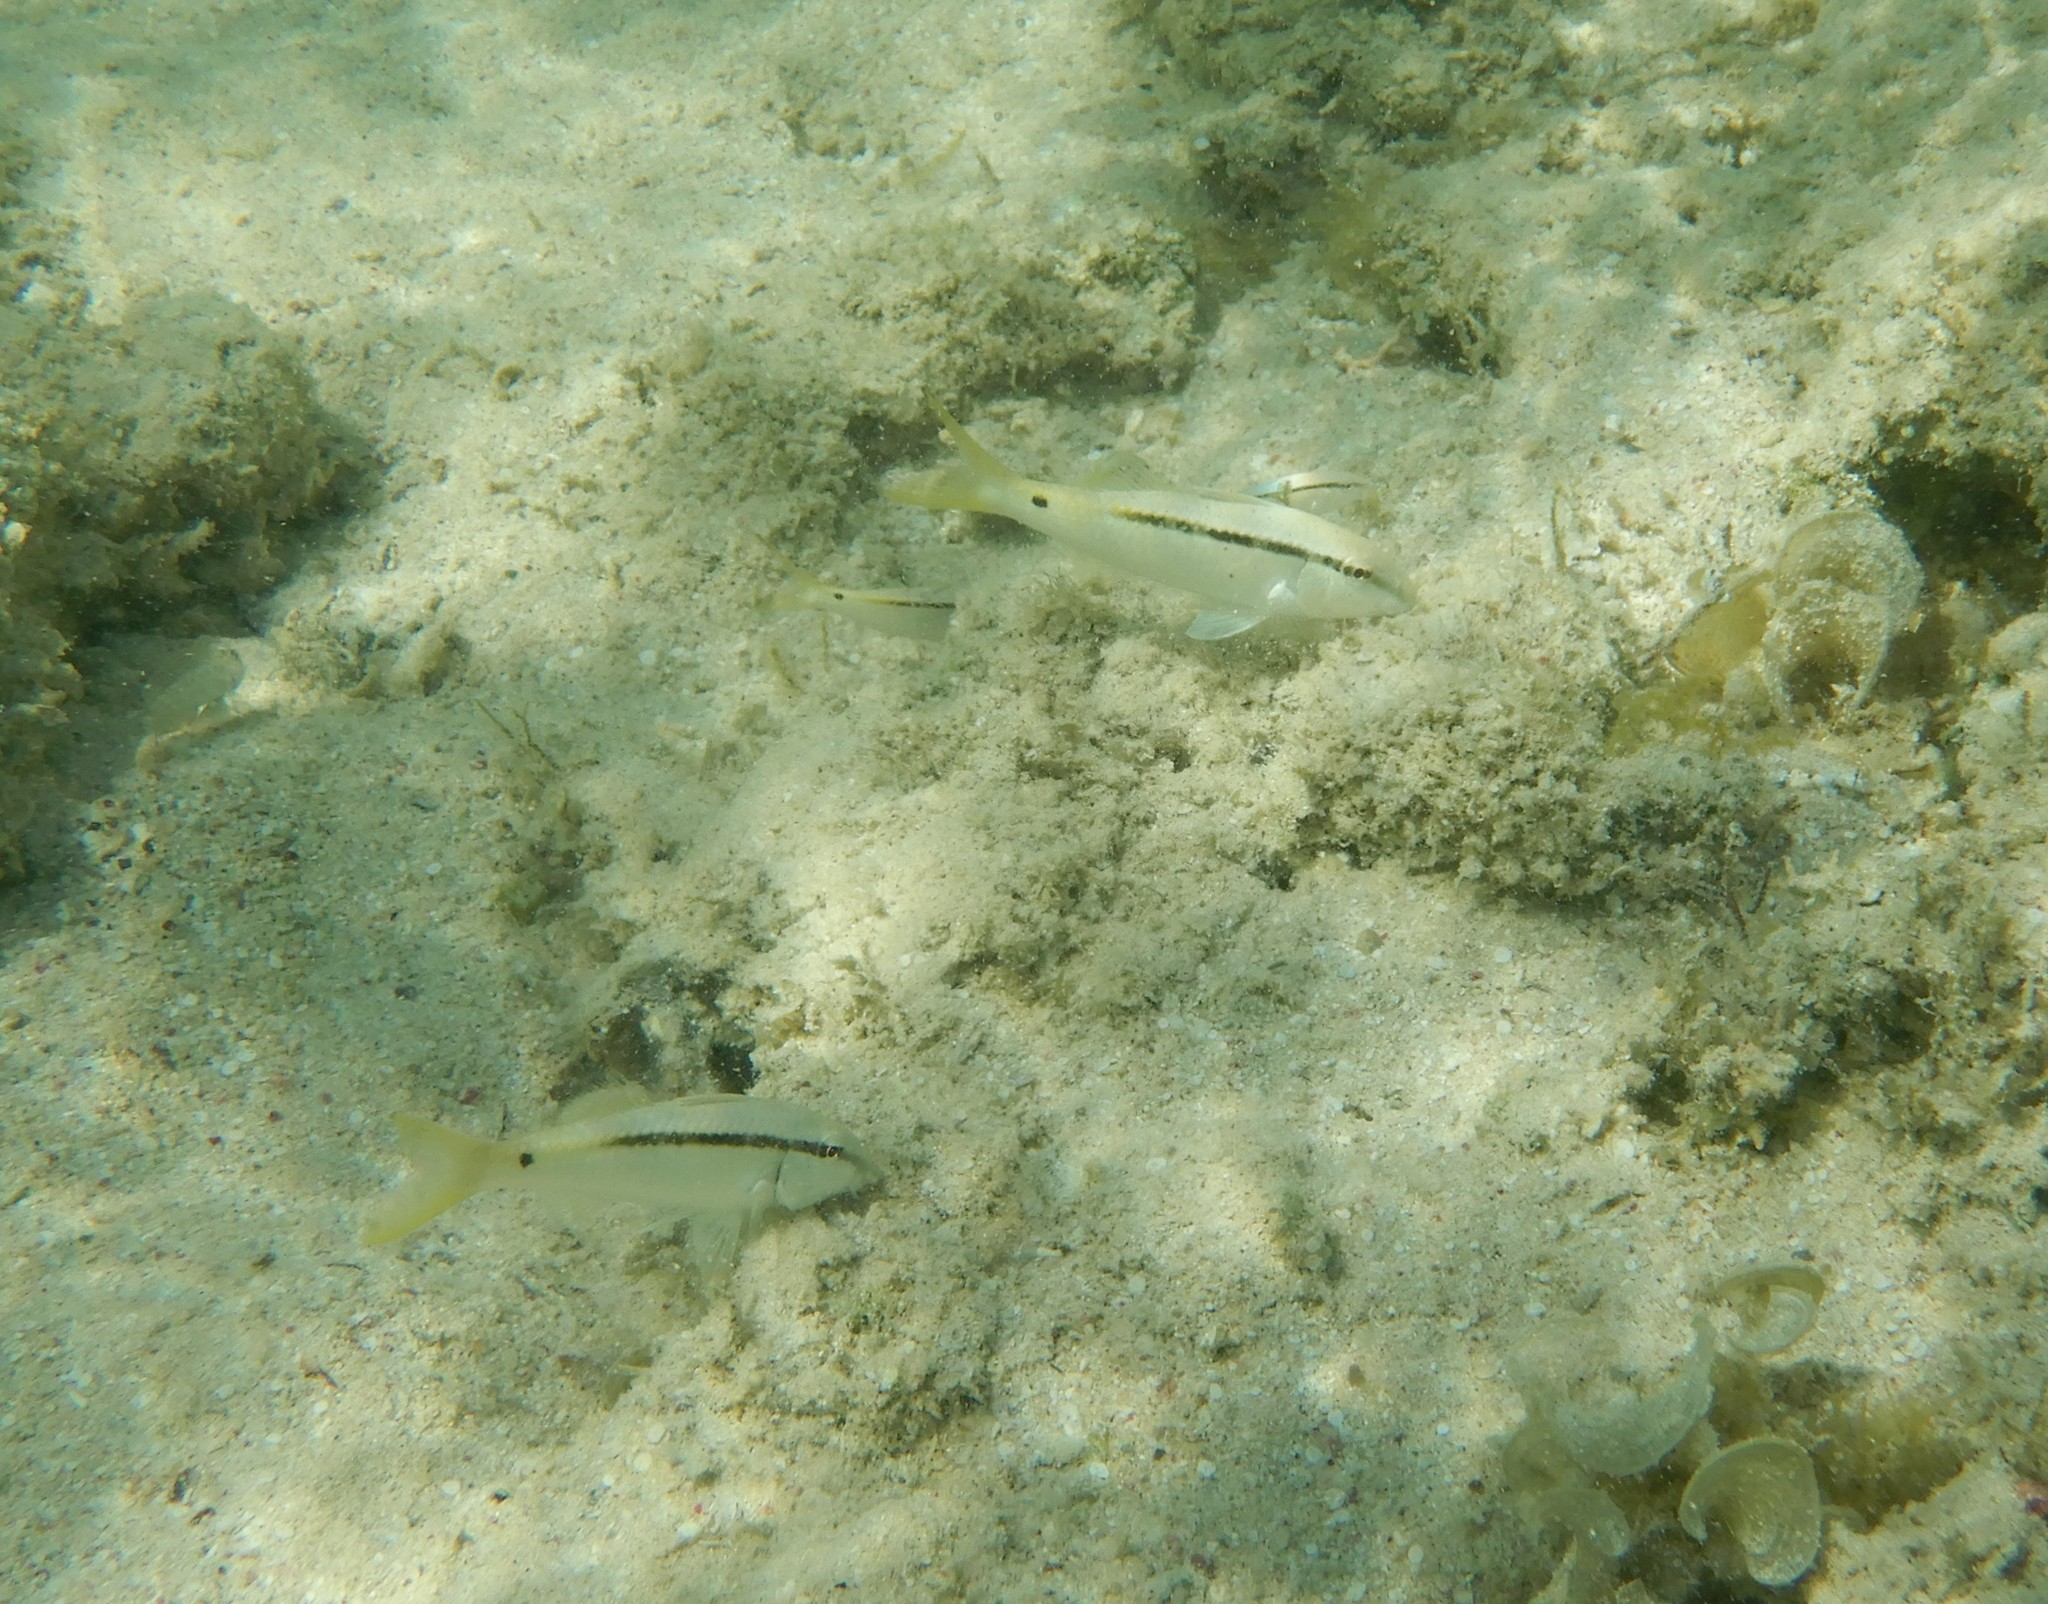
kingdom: Animalia
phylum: Chordata
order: Perciformes
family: Mullidae
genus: Parupeneus
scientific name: Parupeneus forsskali
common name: Red sea goatfish
